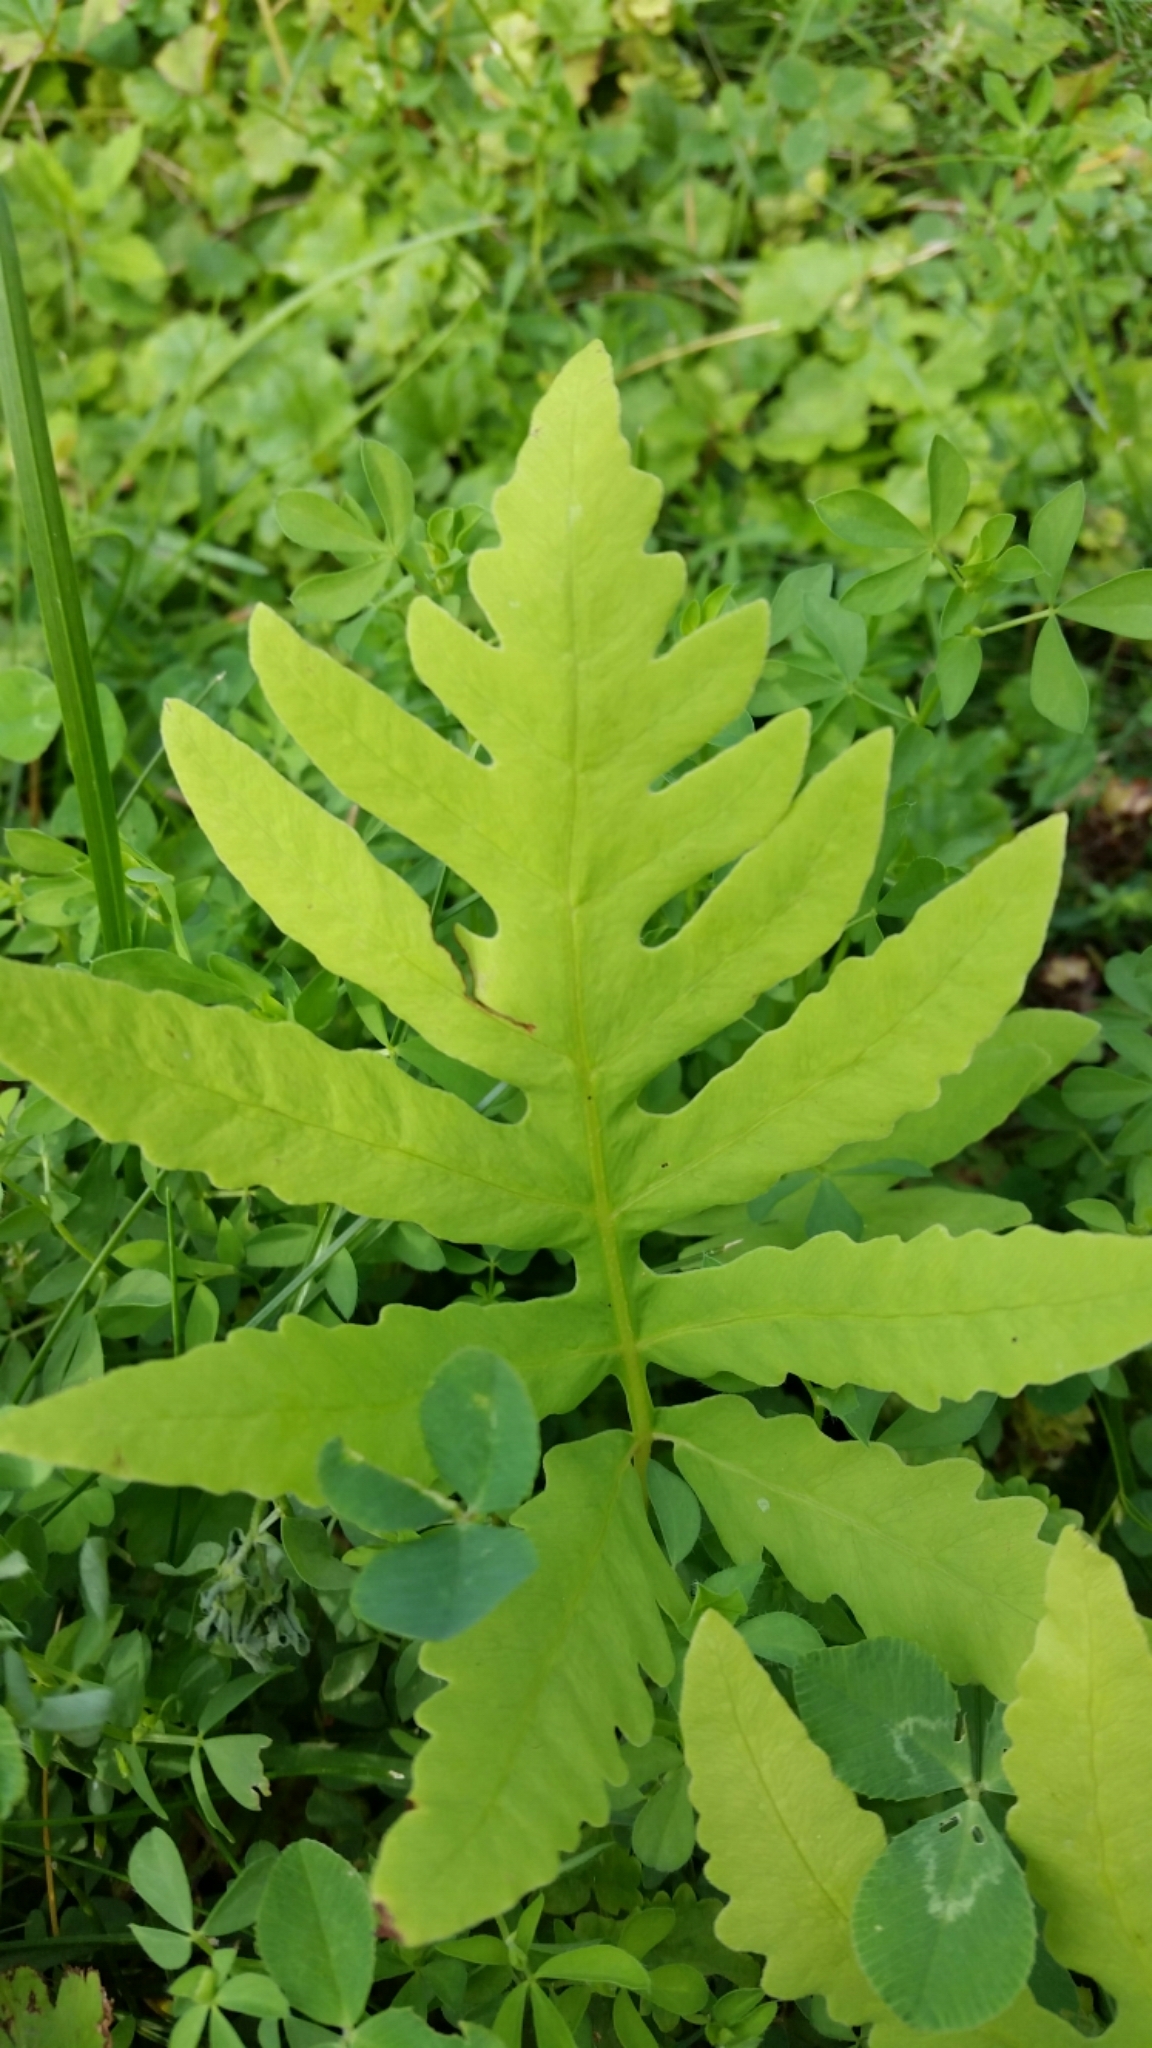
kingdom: Plantae
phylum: Tracheophyta
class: Polypodiopsida
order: Polypodiales
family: Onocleaceae
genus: Onoclea
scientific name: Onoclea sensibilis
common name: Sensitive fern
